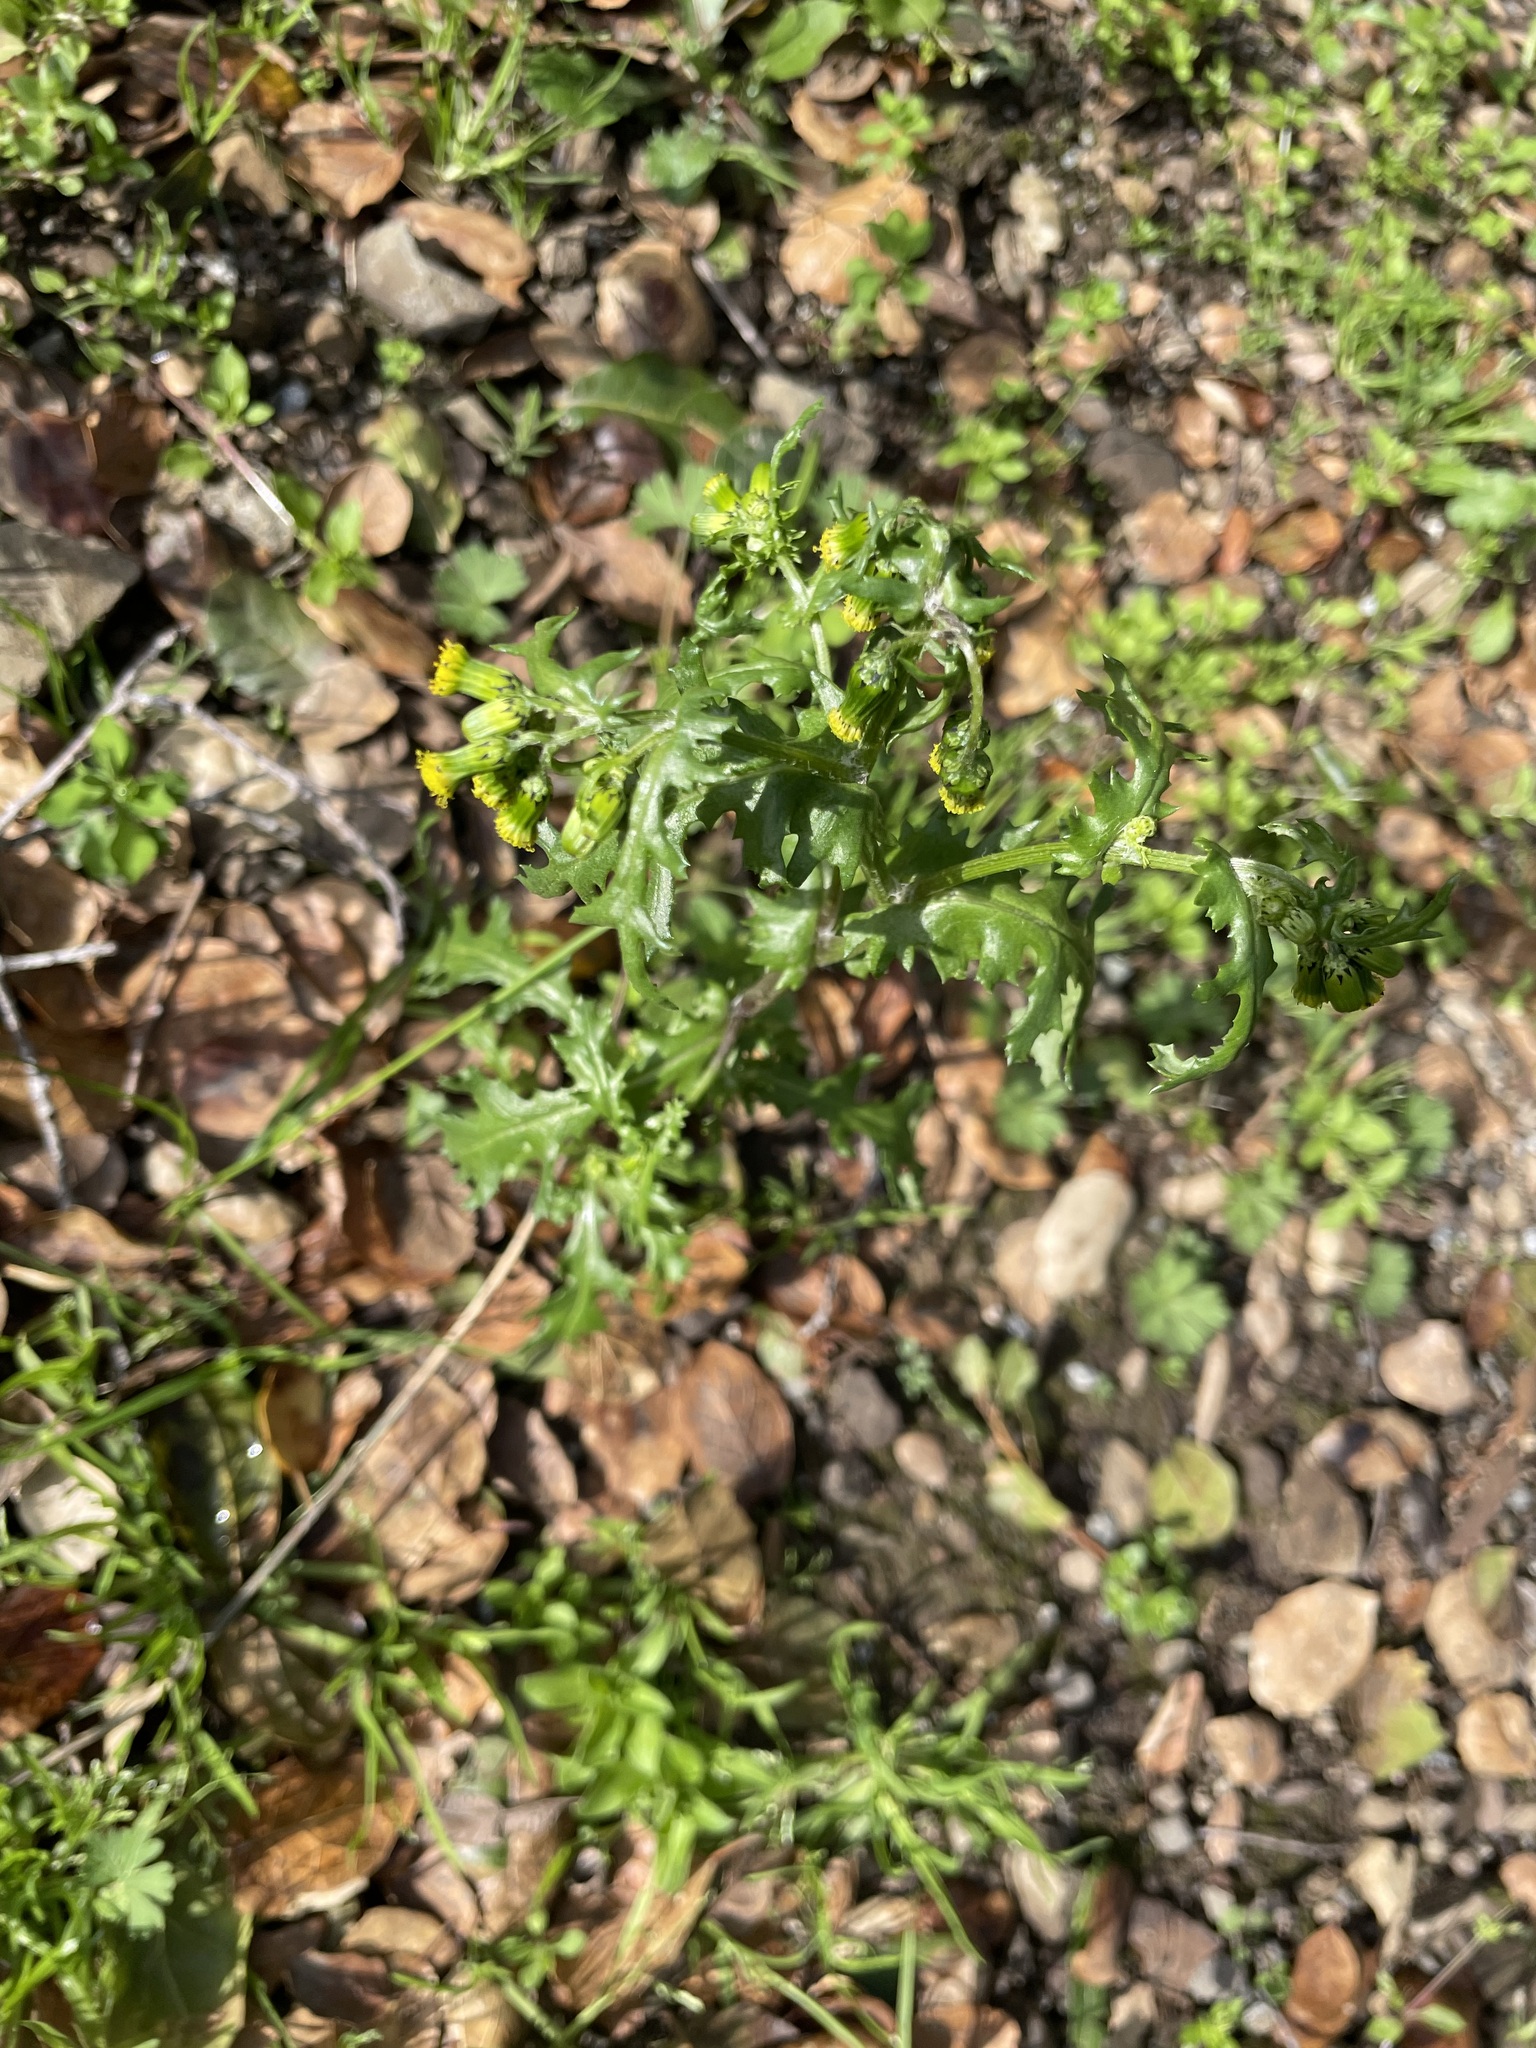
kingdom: Plantae
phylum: Tracheophyta
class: Magnoliopsida
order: Asterales
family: Asteraceae
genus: Senecio
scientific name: Senecio vulgaris
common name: Old-man-in-the-spring
